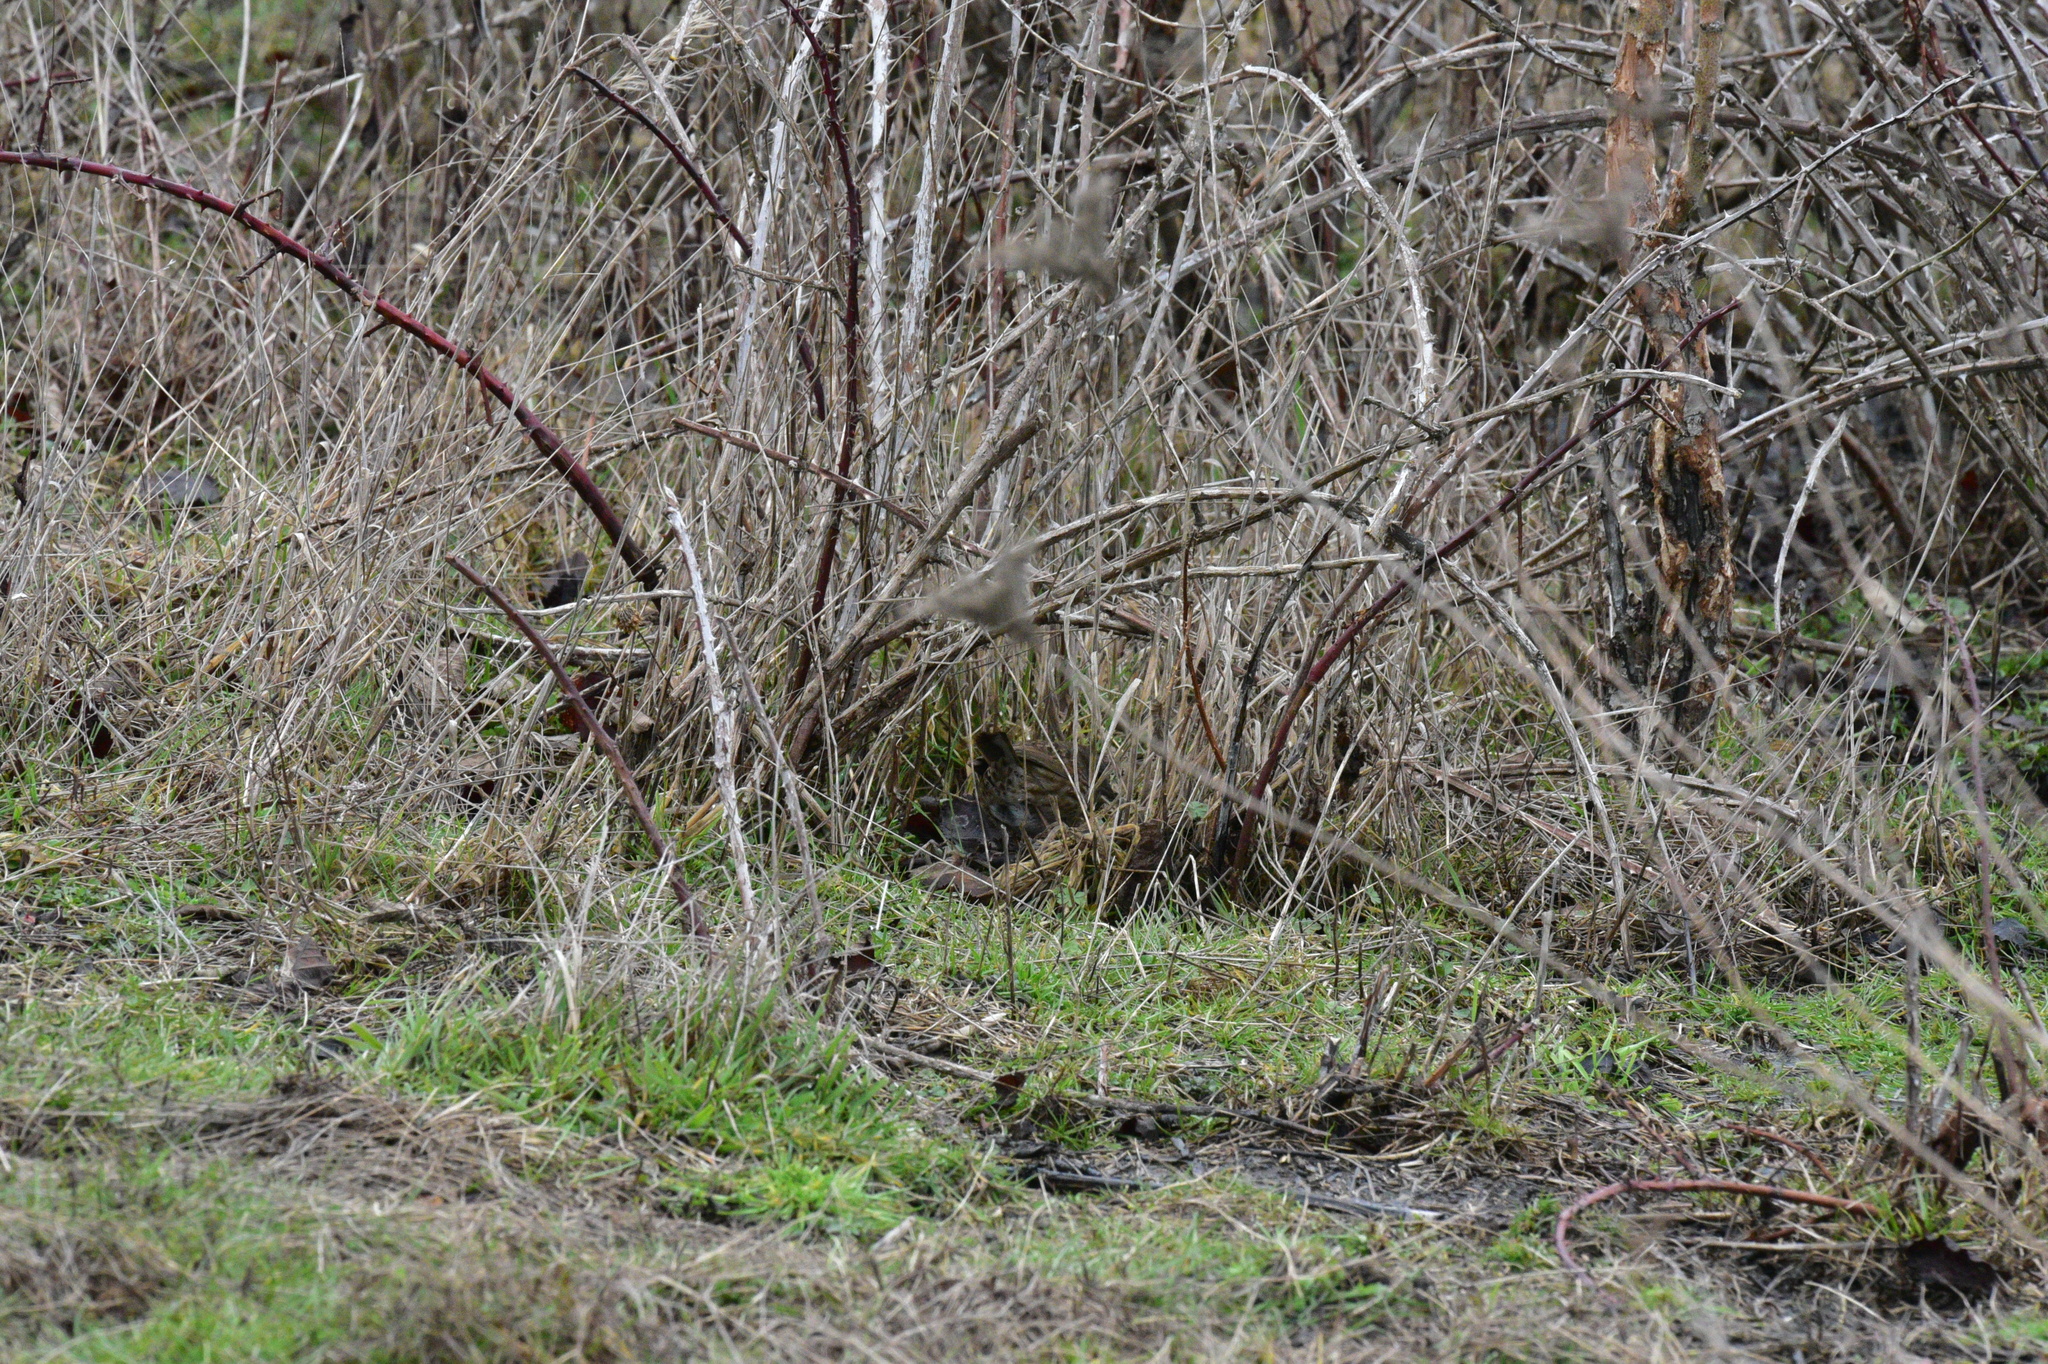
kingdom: Animalia
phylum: Chordata
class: Aves
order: Passeriformes
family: Passerellidae
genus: Melospiza
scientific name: Melospiza melodia
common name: Song sparrow
